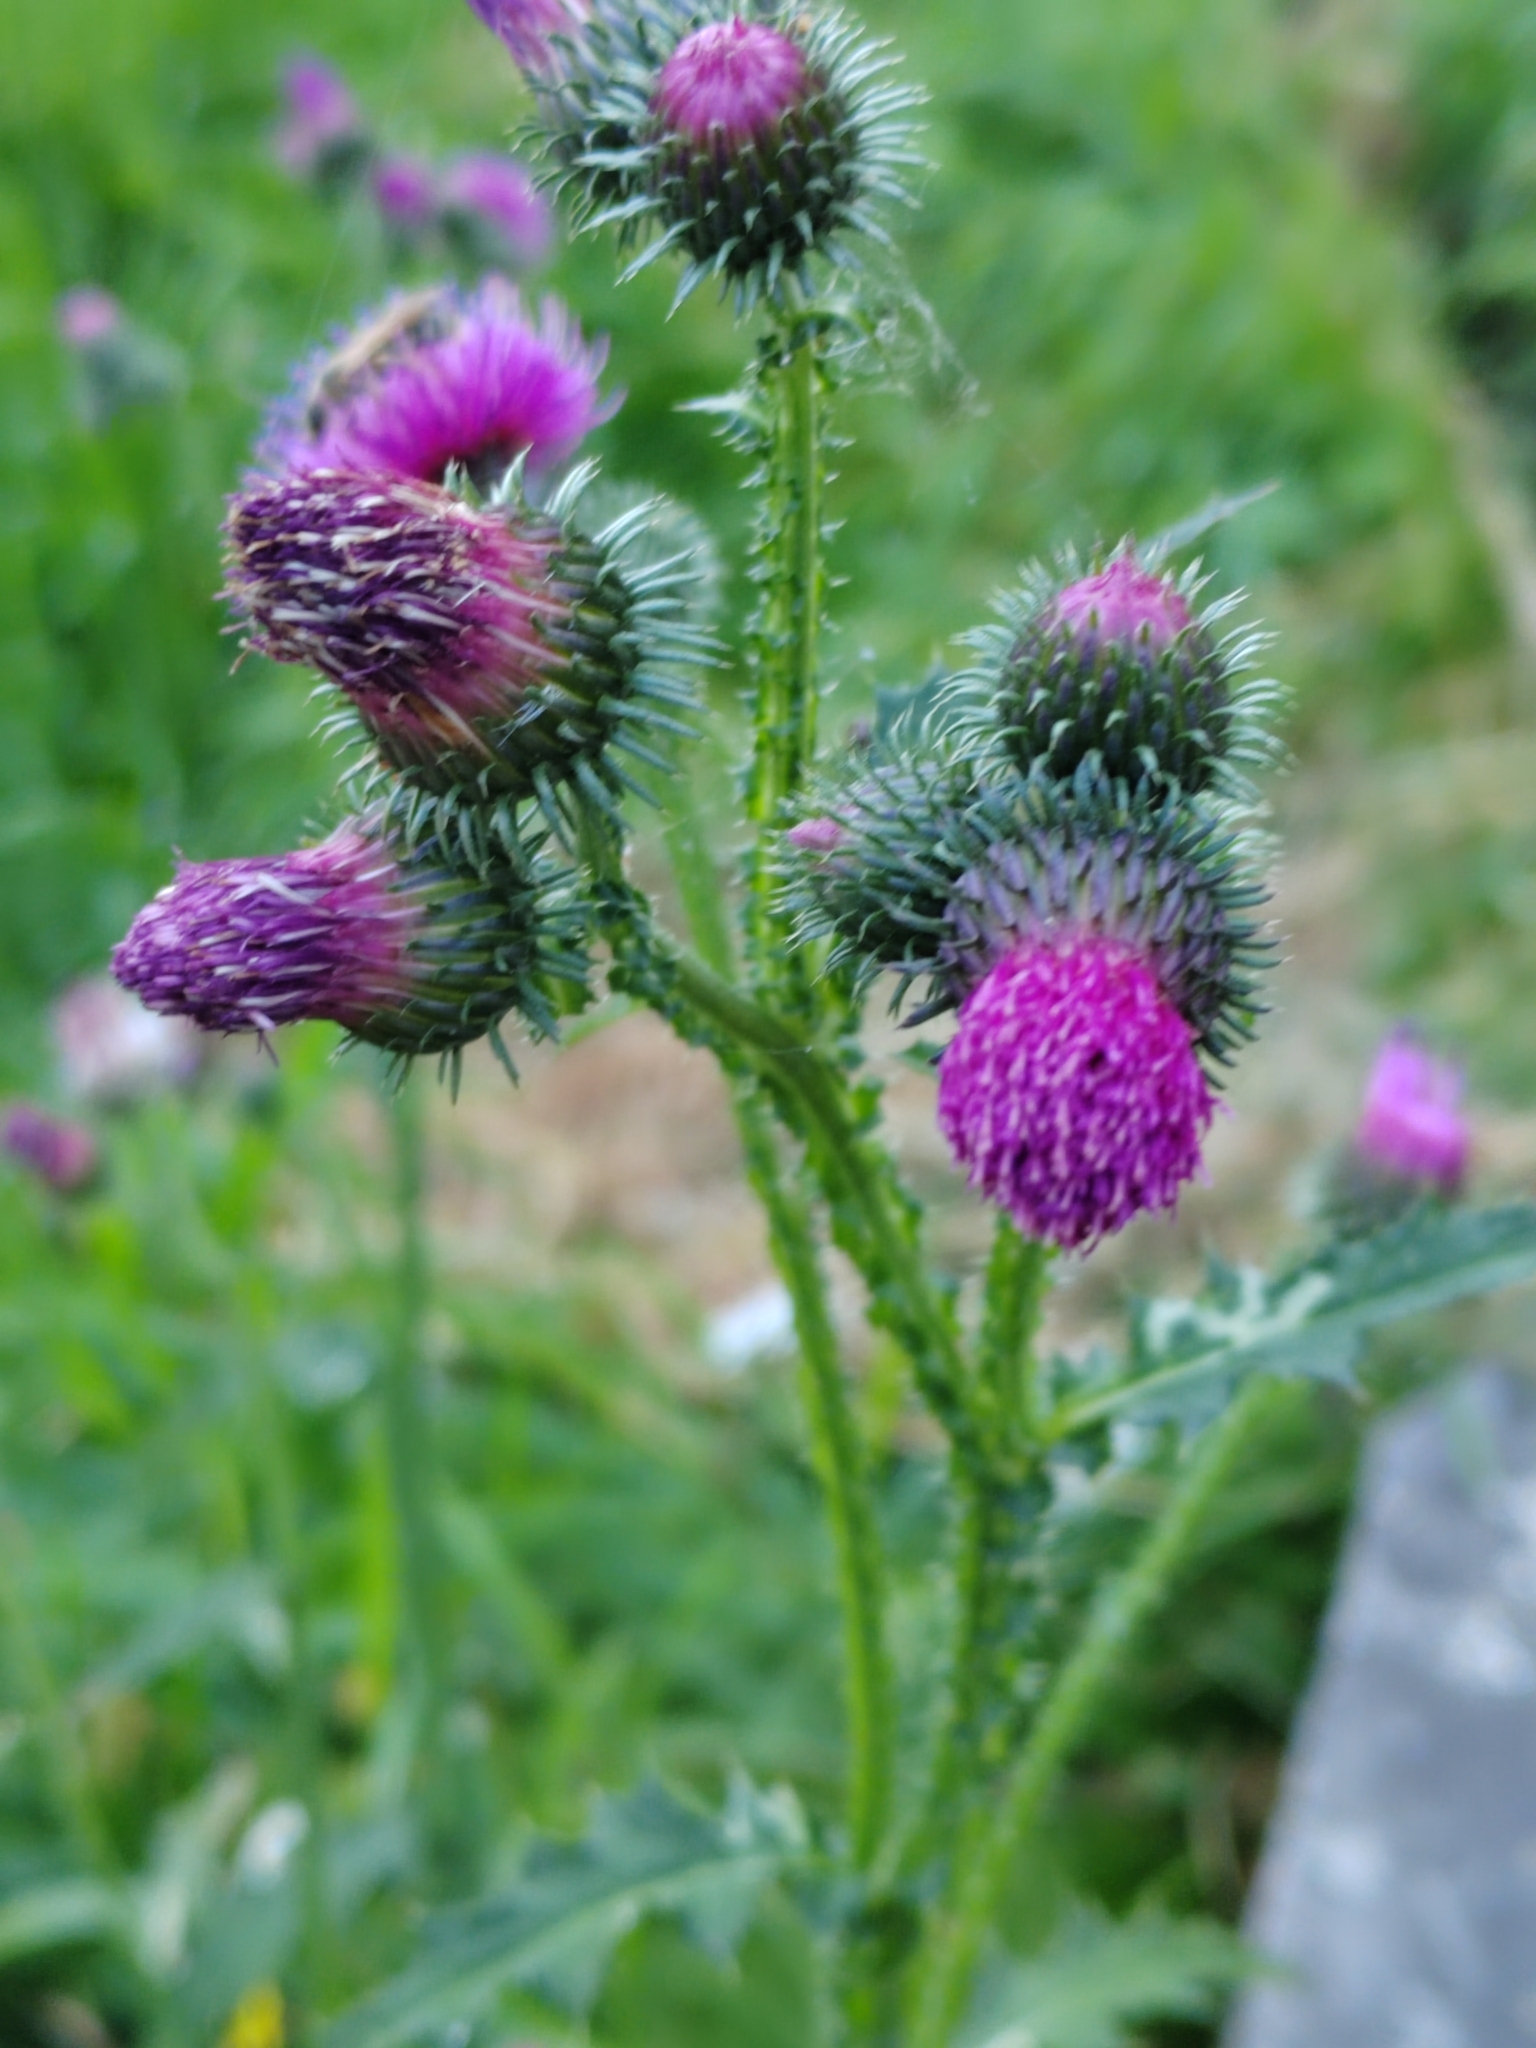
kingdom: Plantae
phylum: Tracheophyta
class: Magnoliopsida
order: Asterales
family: Asteraceae
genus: Carduus
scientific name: Carduus crispus
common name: Welted thistle
